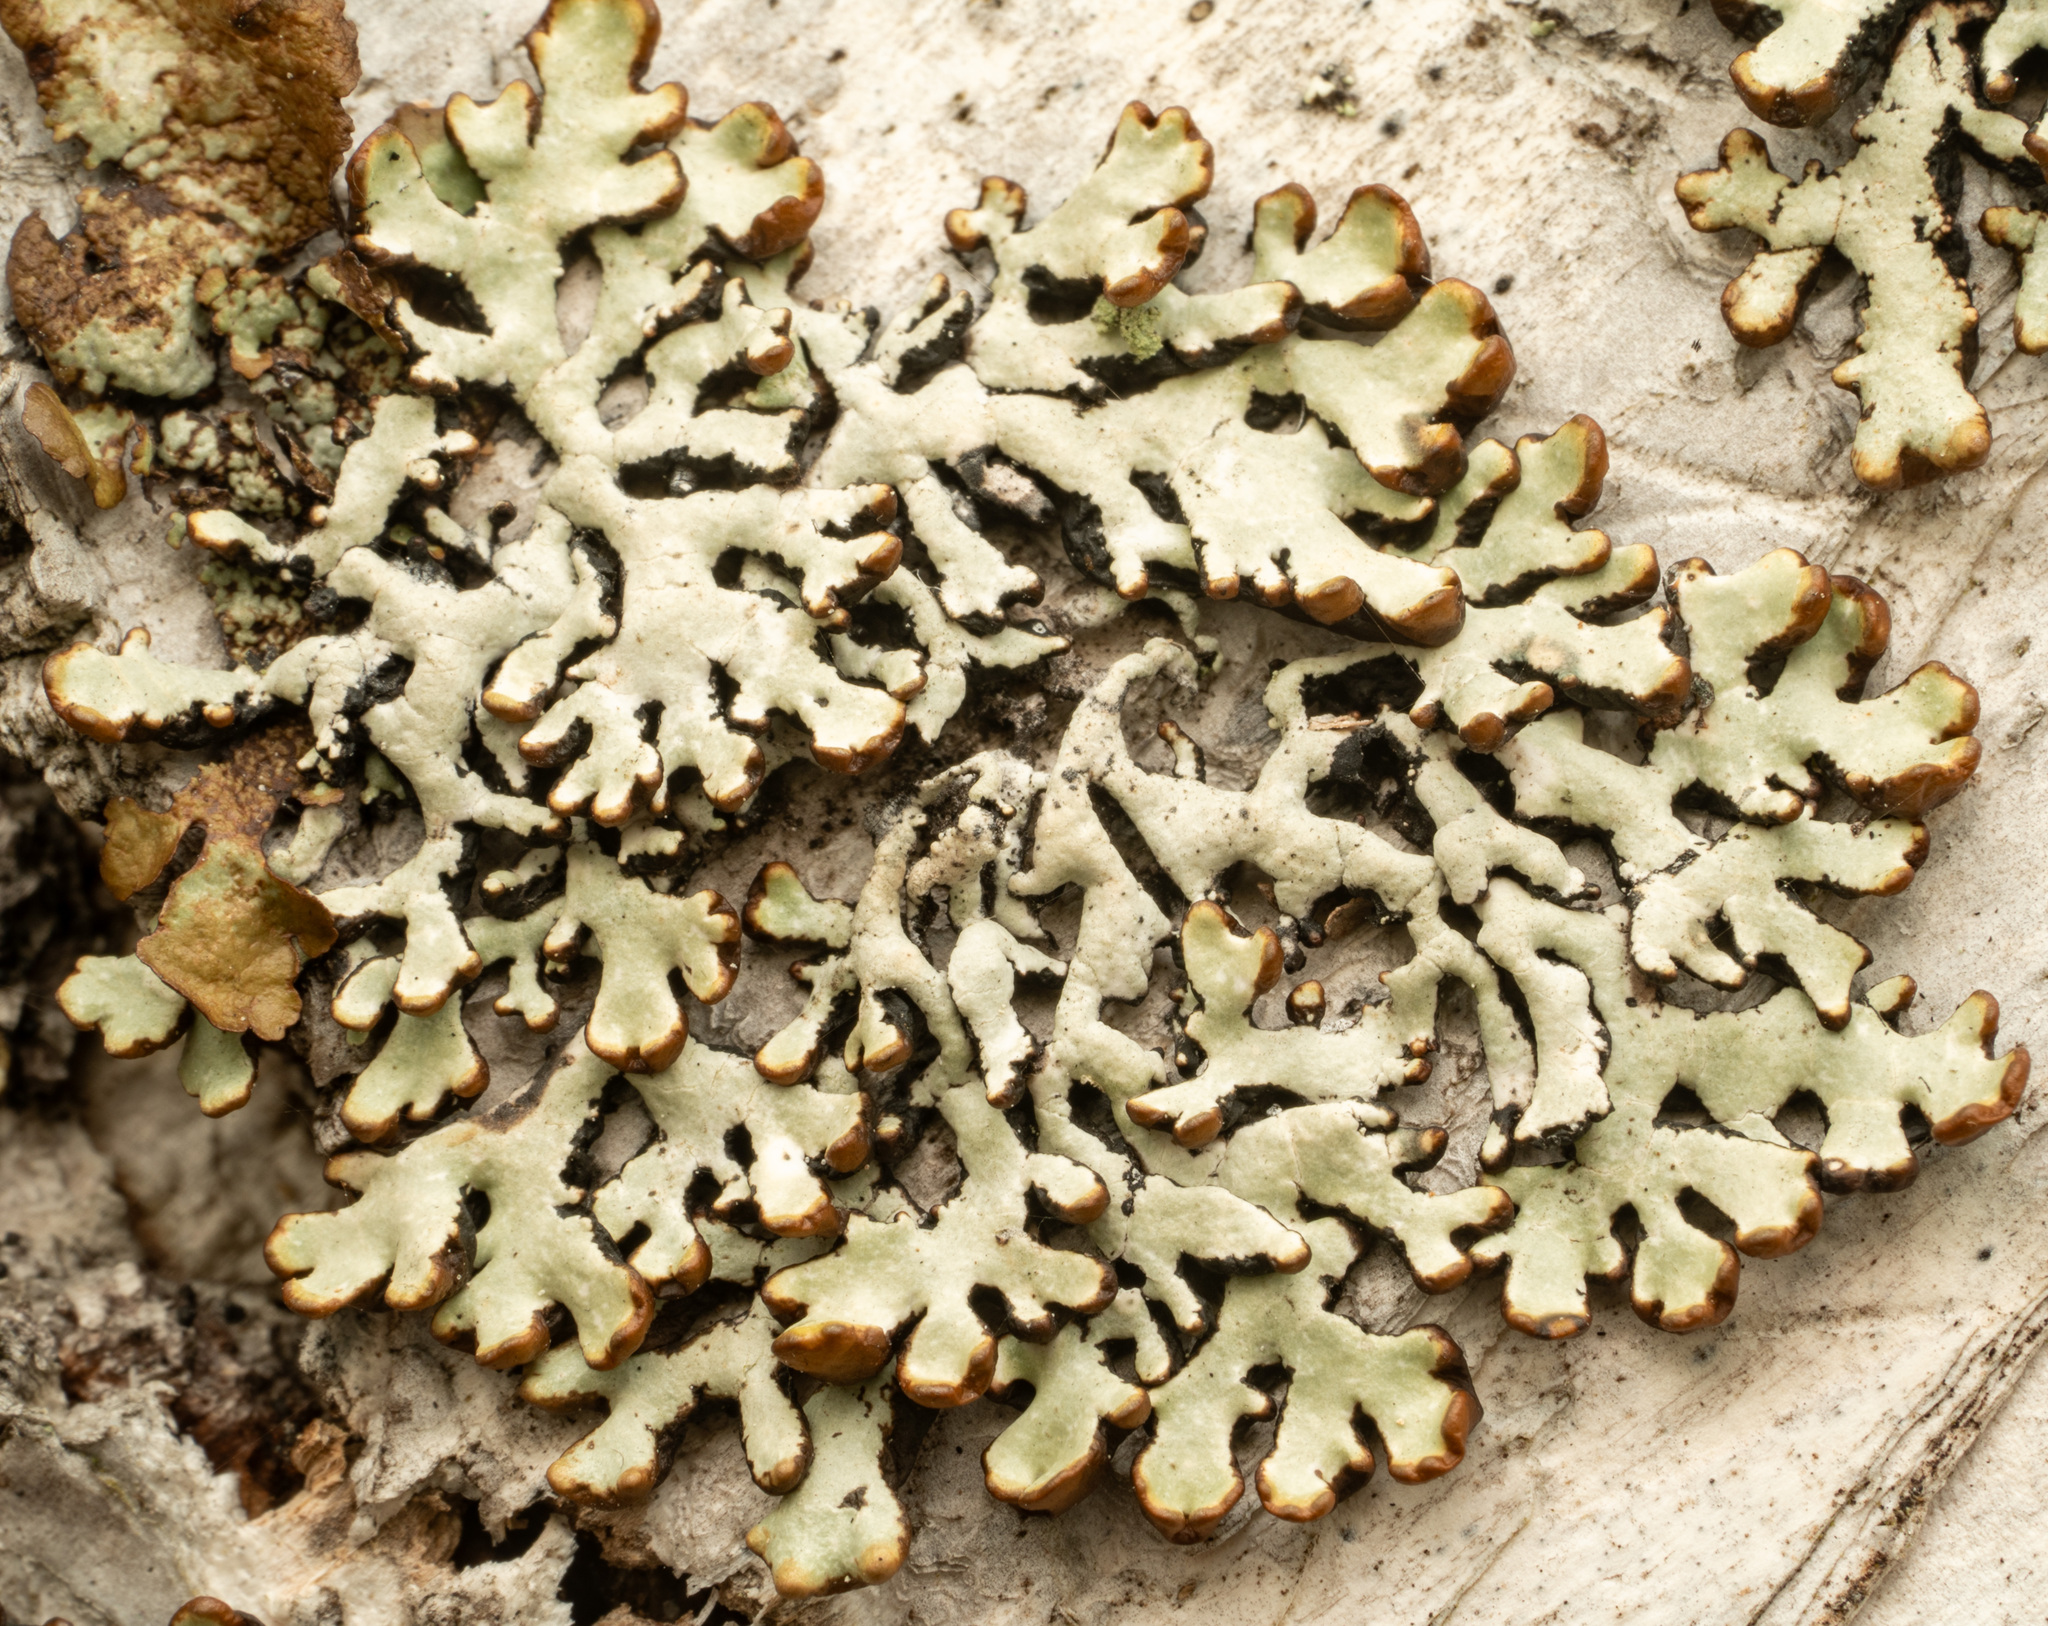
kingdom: Fungi
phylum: Ascomycota
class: Lecanoromycetes
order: Lecanorales
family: Parmeliaceae
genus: Hypogymnia
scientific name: Hypogymnia physodes
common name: Dark crottle
